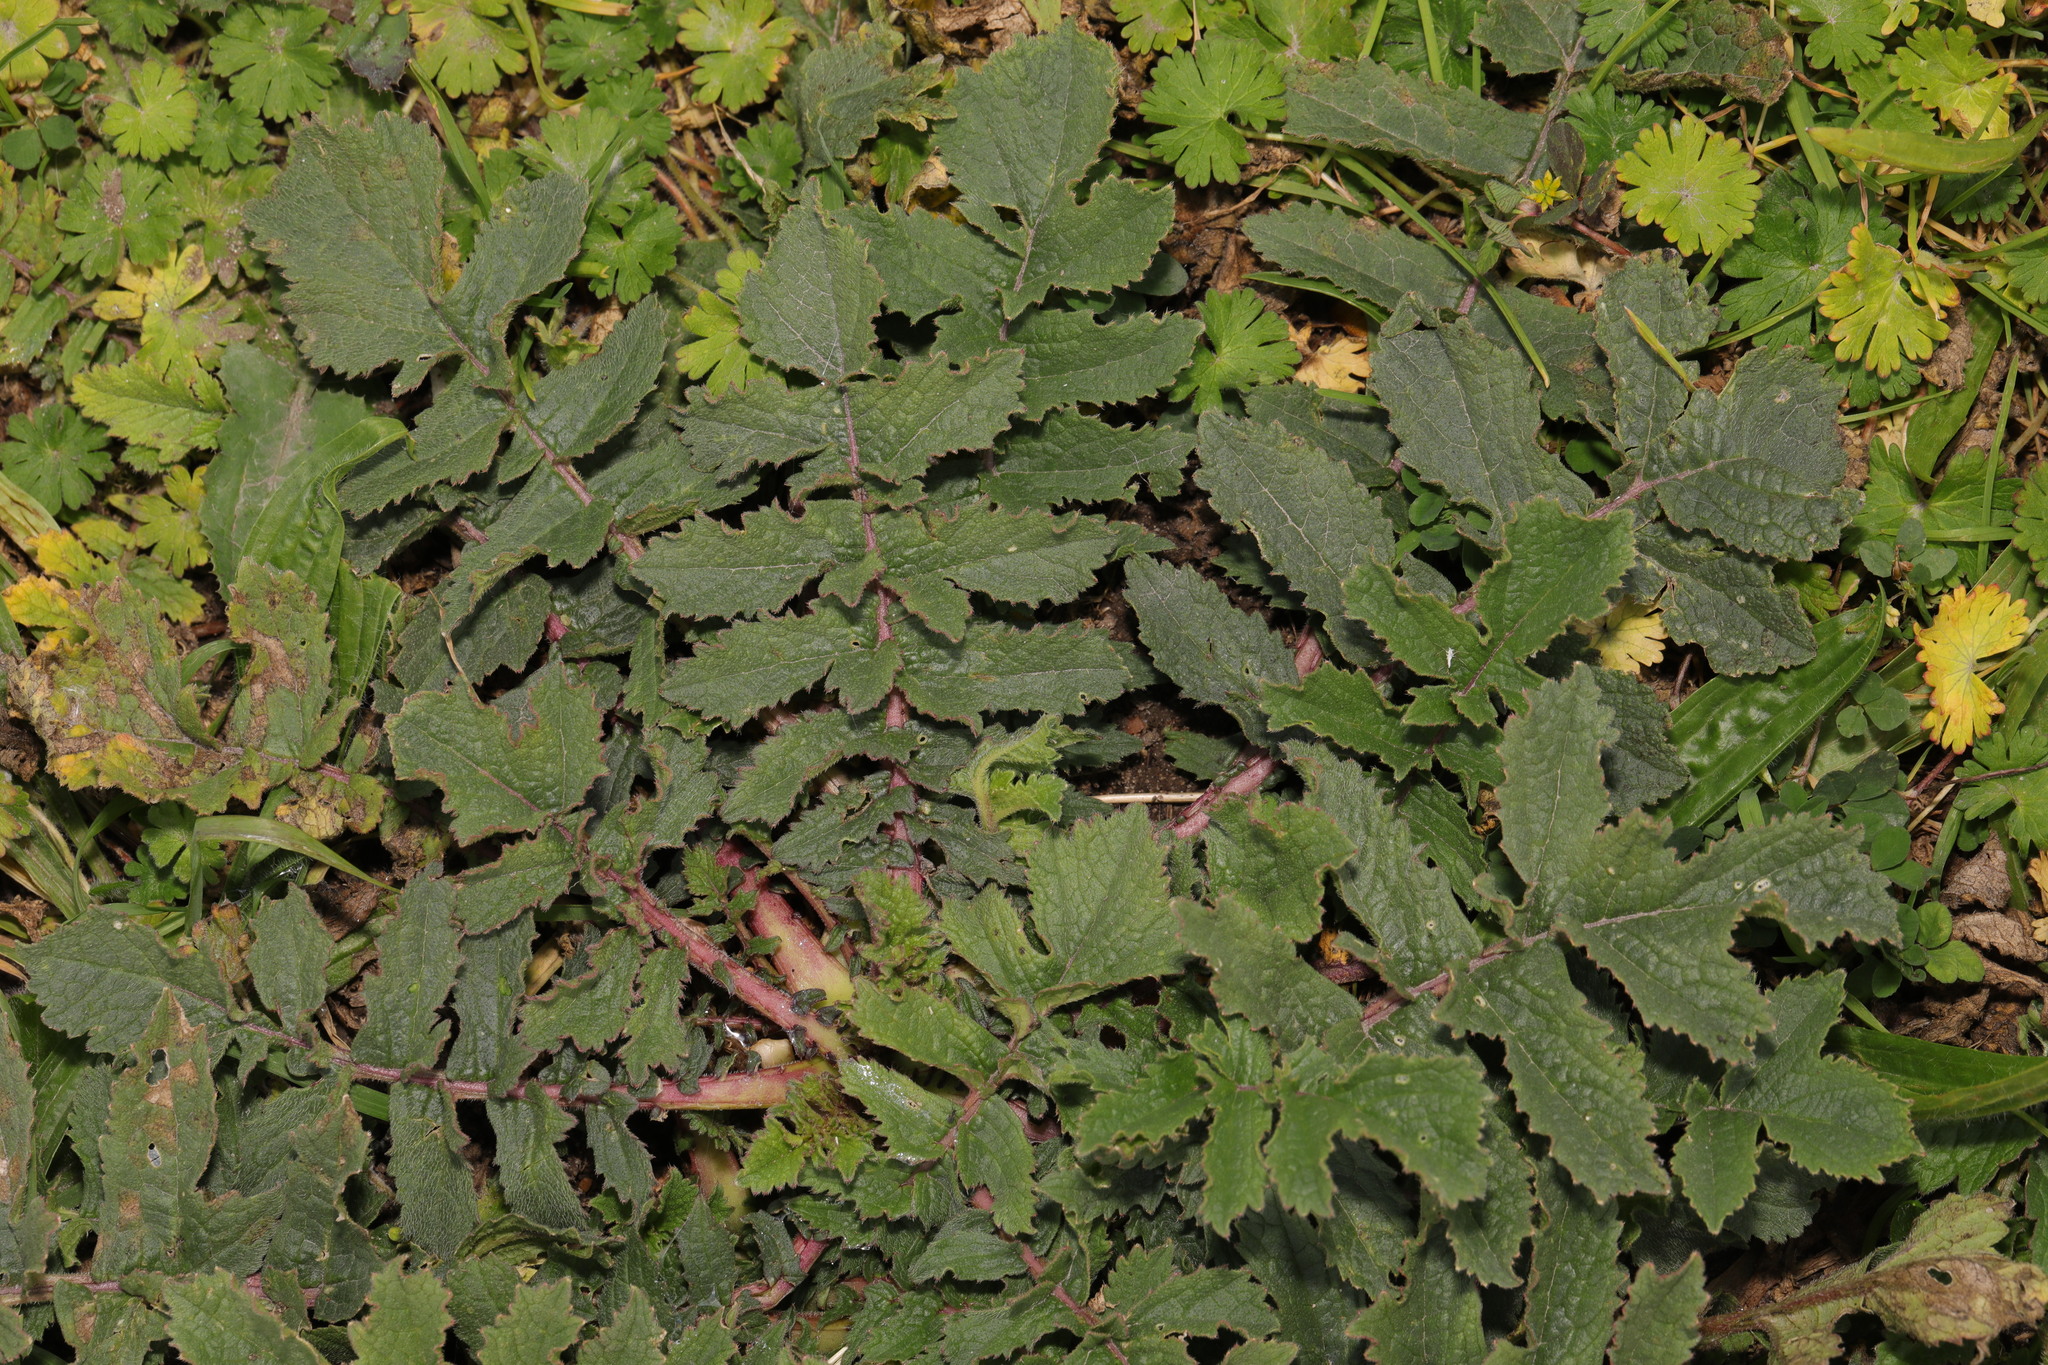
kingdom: Plantae
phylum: Tracheophyta
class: Magnoliopsida
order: Brassicales
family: Brassicaceae
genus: Raphanus
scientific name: Raphanus raphanistrum
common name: Wild radish
